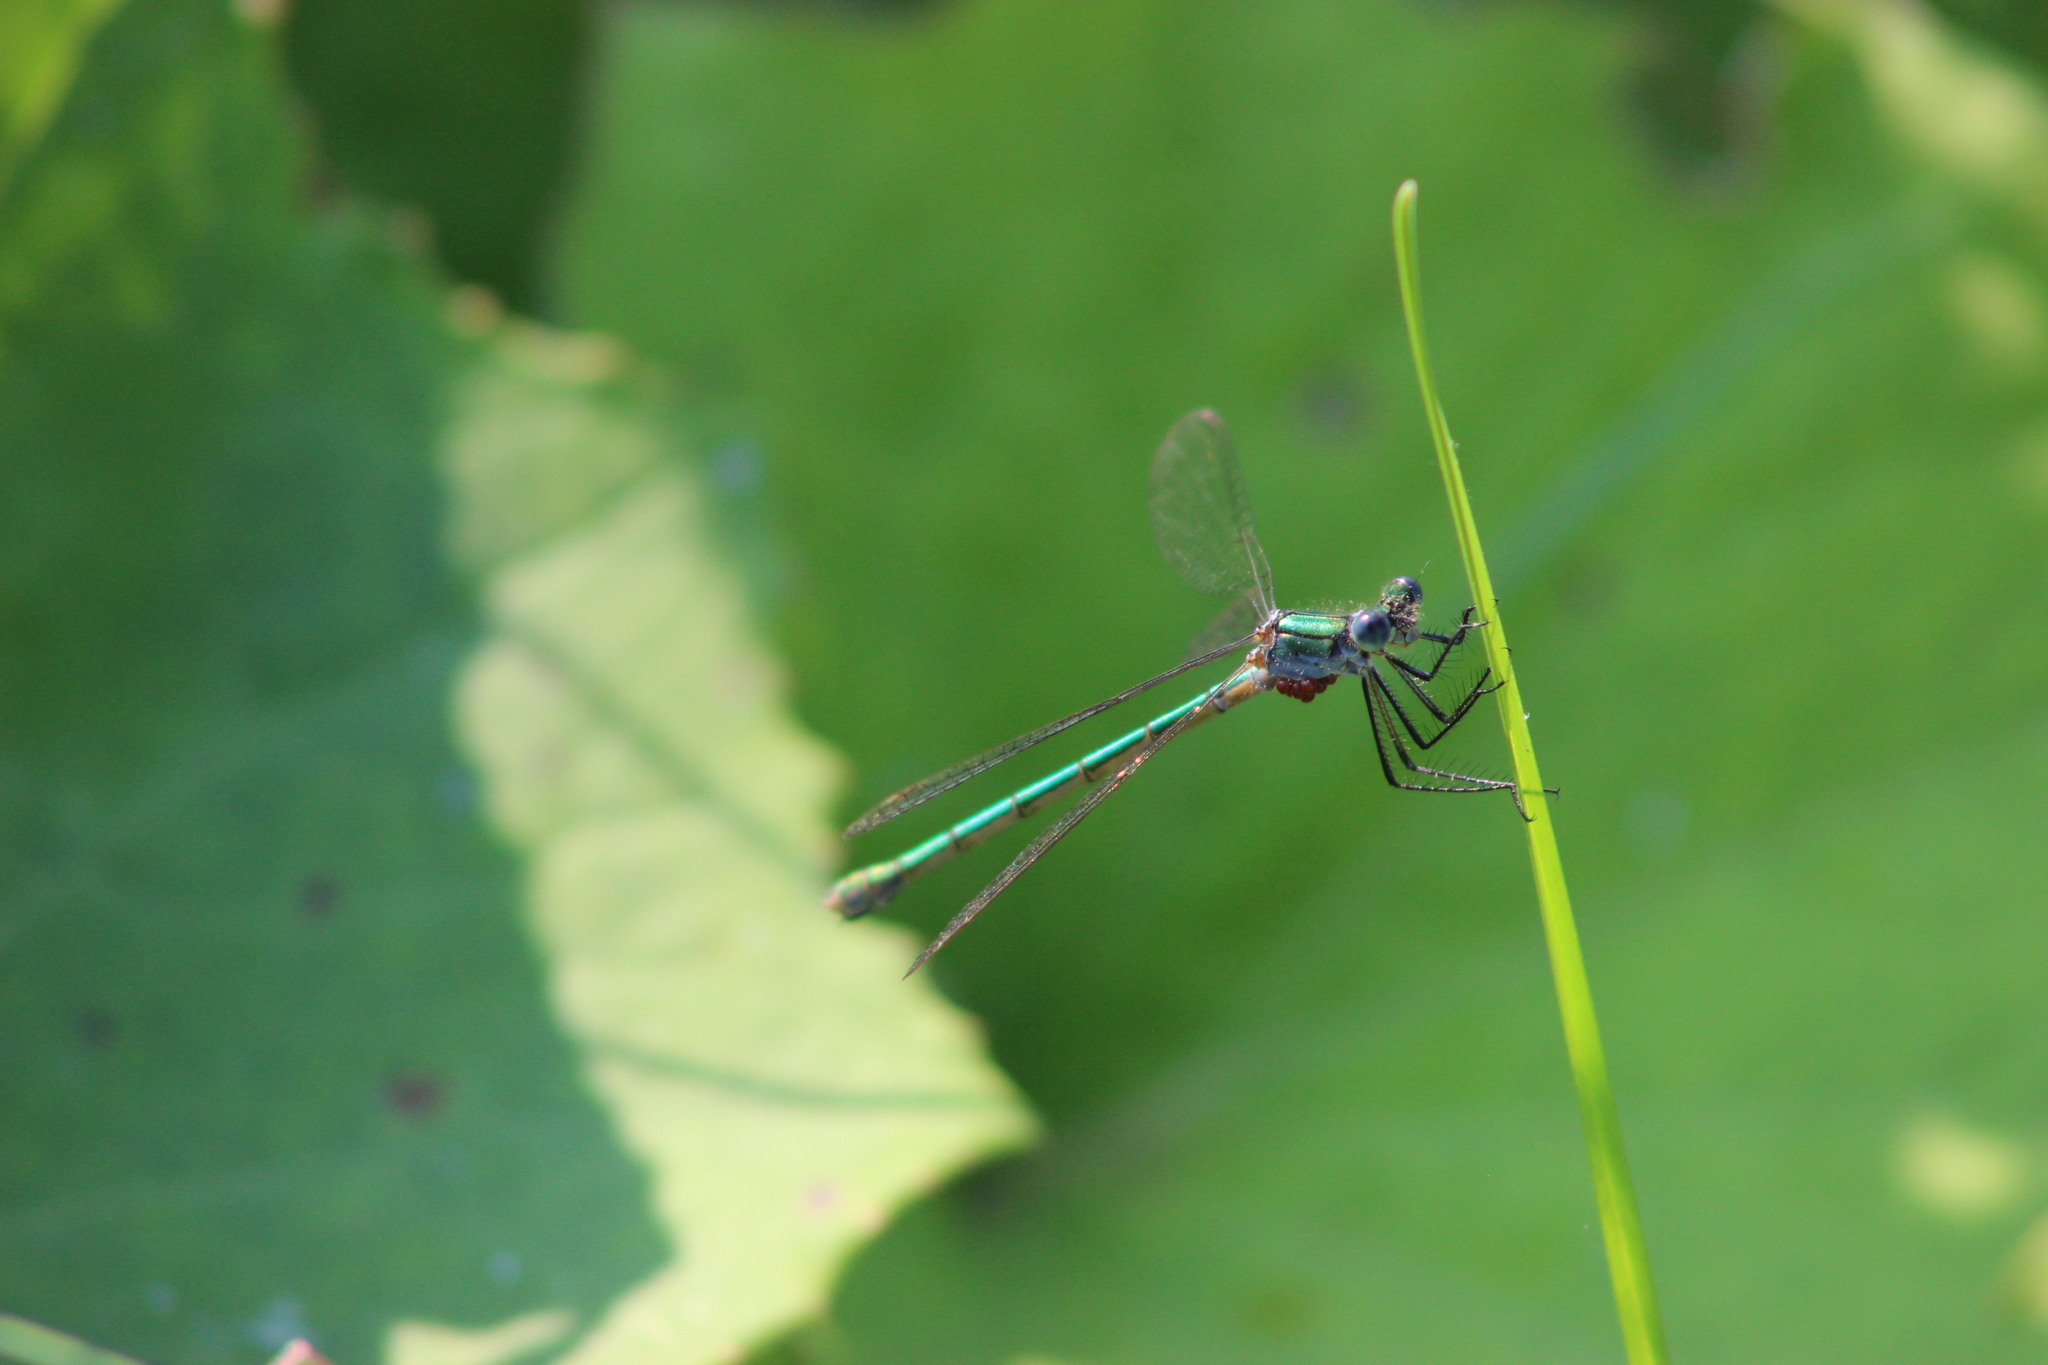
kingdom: Animalia
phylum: Arthropoda
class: Insecta
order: Odonata
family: Lestidae
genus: Lestes
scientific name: Lestes dryas
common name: Scarce emerald damselfly
